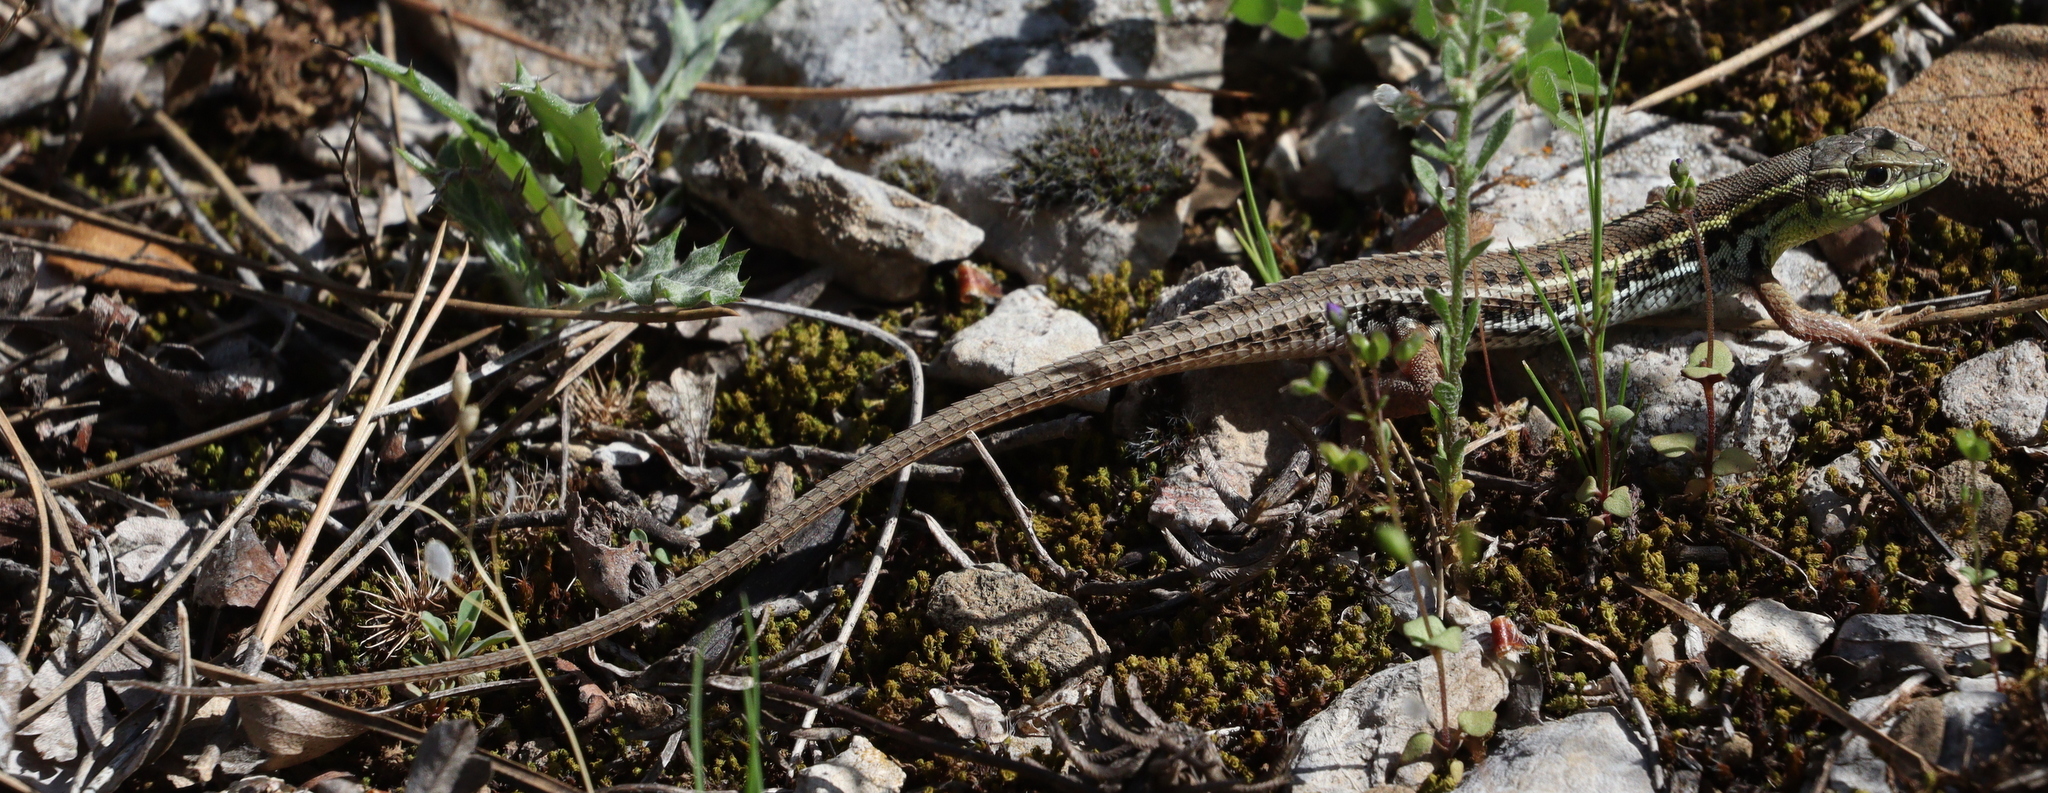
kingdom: Animalia
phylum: Chordata
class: Squamata
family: Lacertidae
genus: Ophisops
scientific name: Ophisops elegans
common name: Snake-eyed lizard
